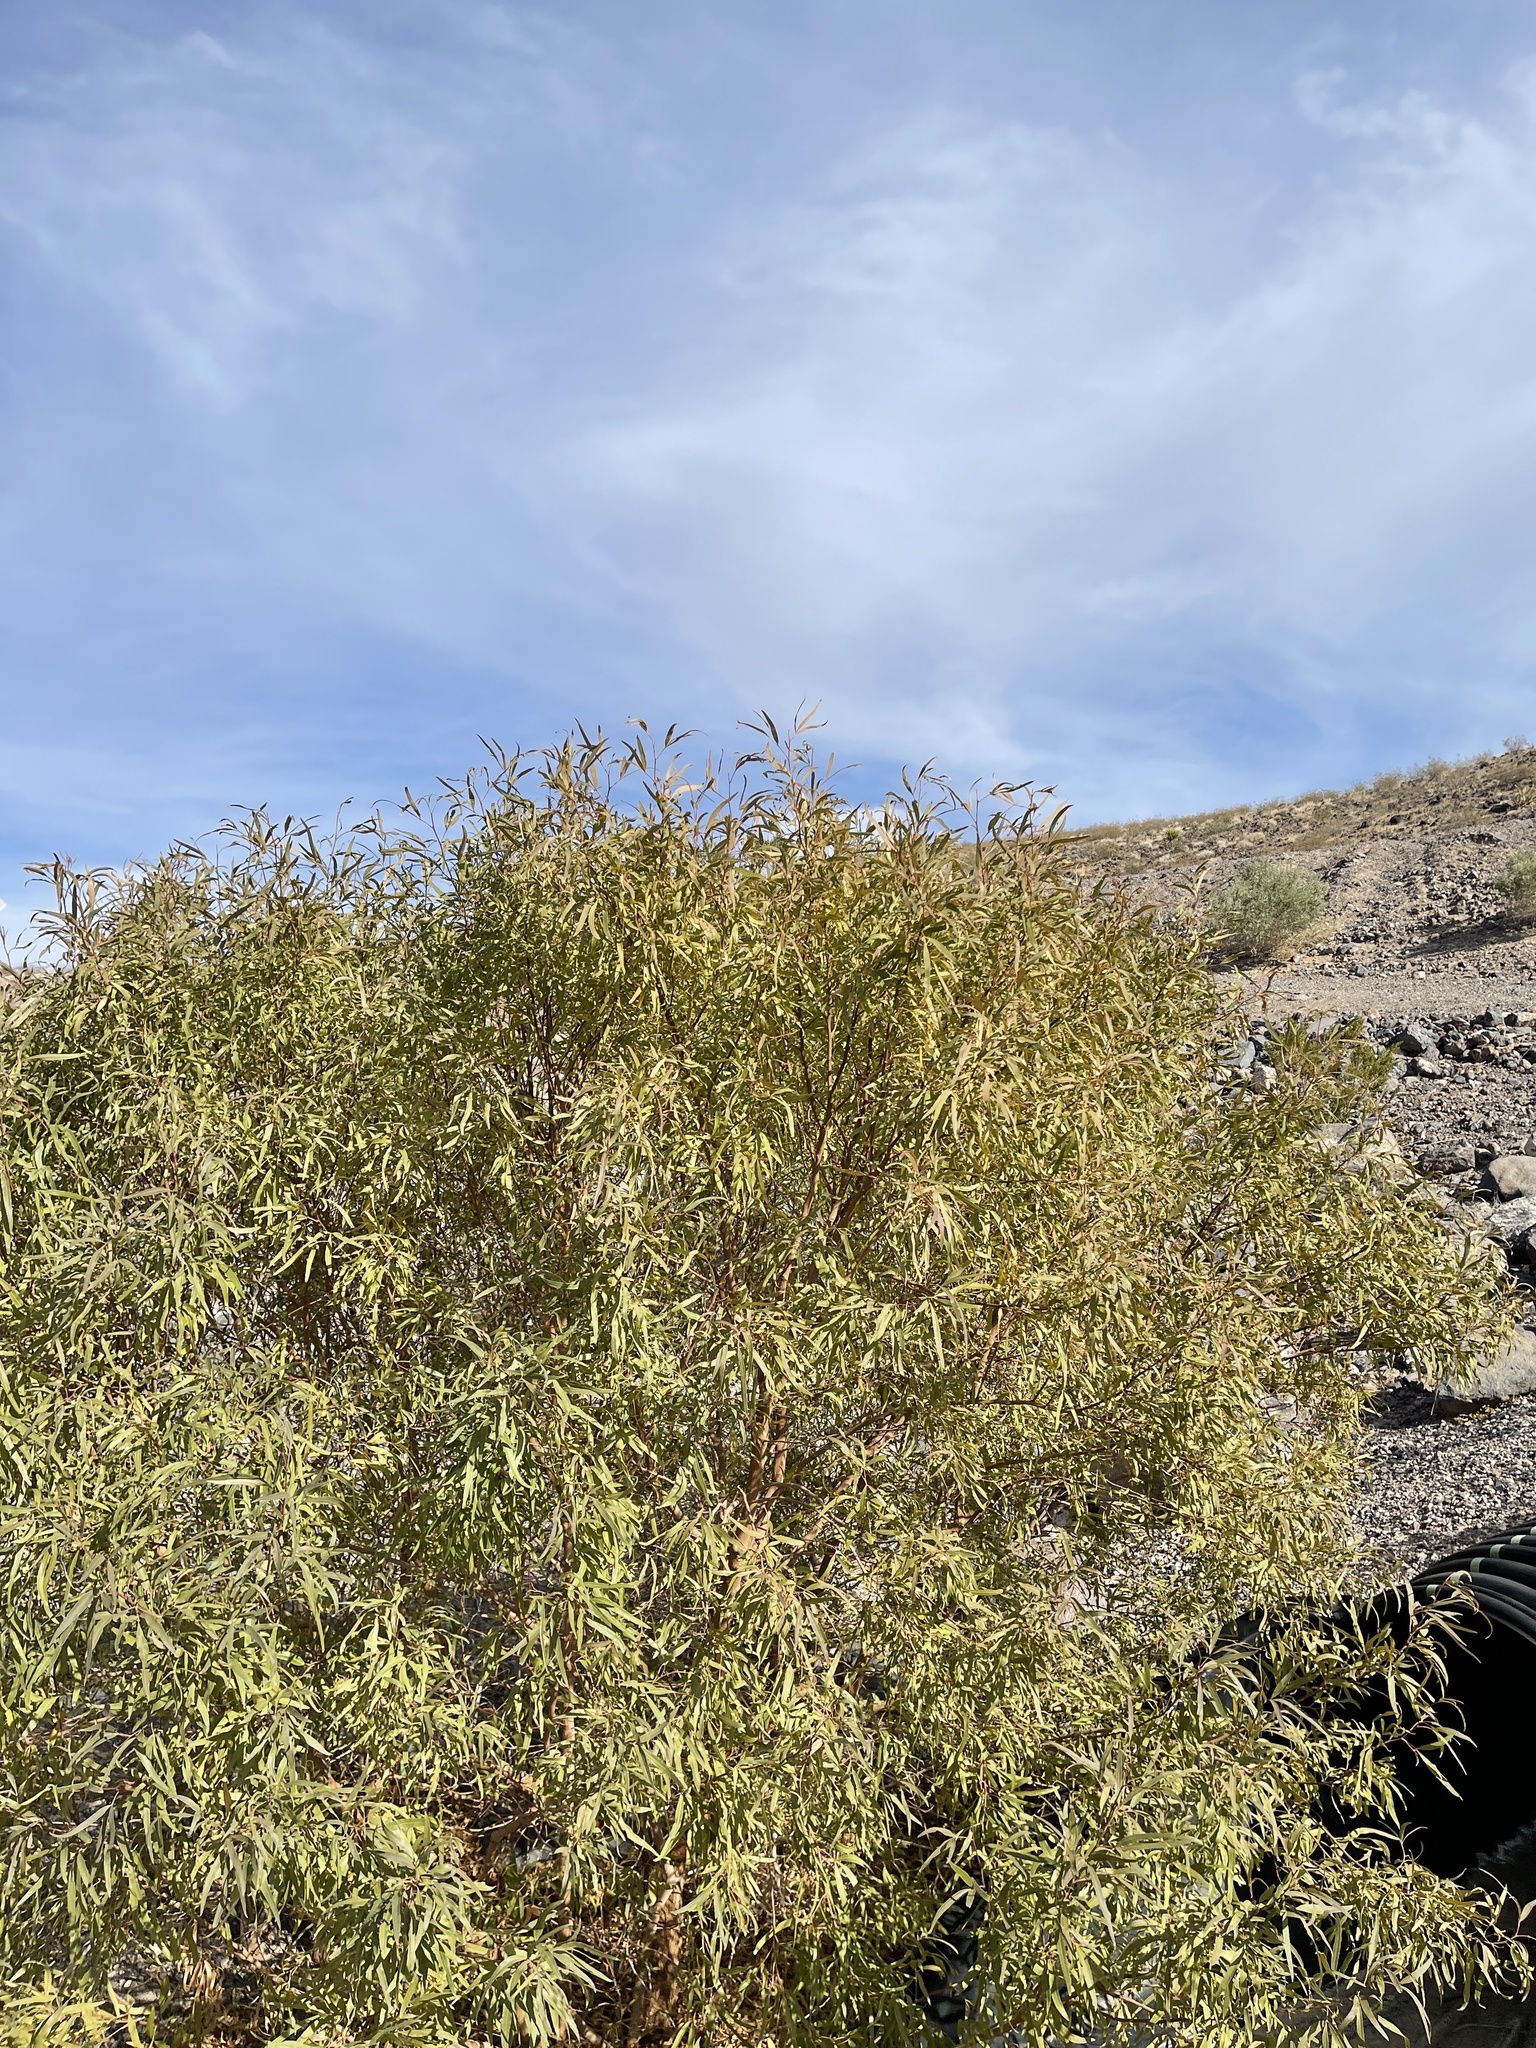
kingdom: Plantae
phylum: Tracheophyta
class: Magnoliopsida
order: Sapindales
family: Anacardiaceae
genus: Searsia
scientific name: Searsia lancea
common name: Cashew
